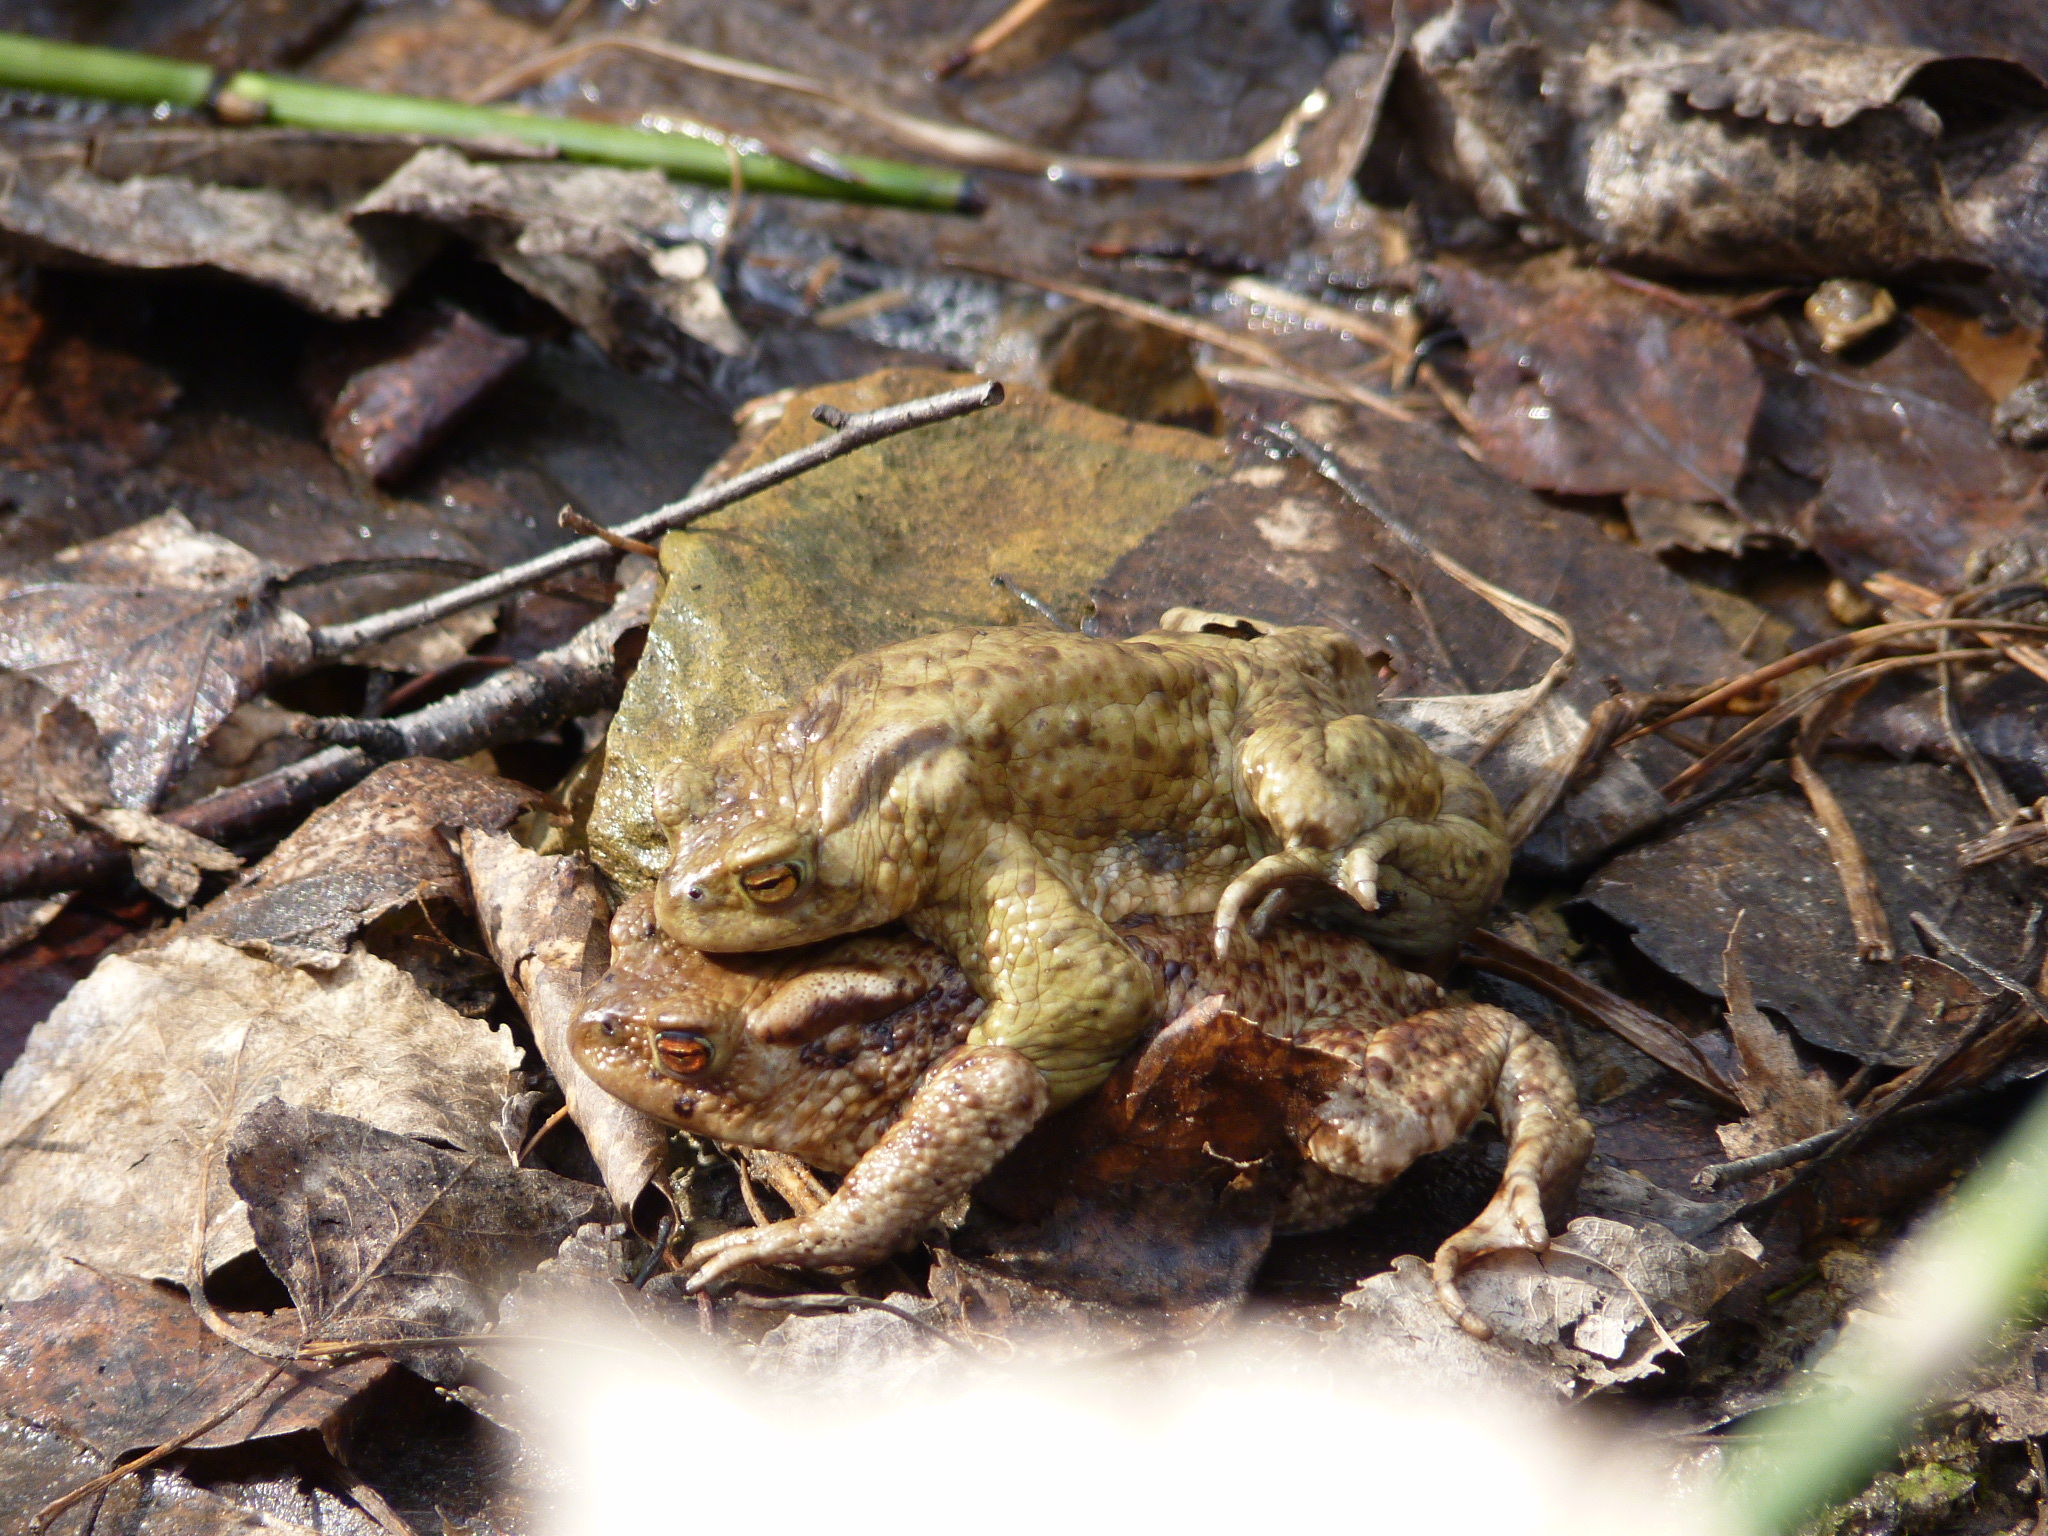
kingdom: Animalia
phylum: Chordata
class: Amphibia
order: Anura
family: Bufonidae
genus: Bufo
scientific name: Bufo bufo
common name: Common toad
